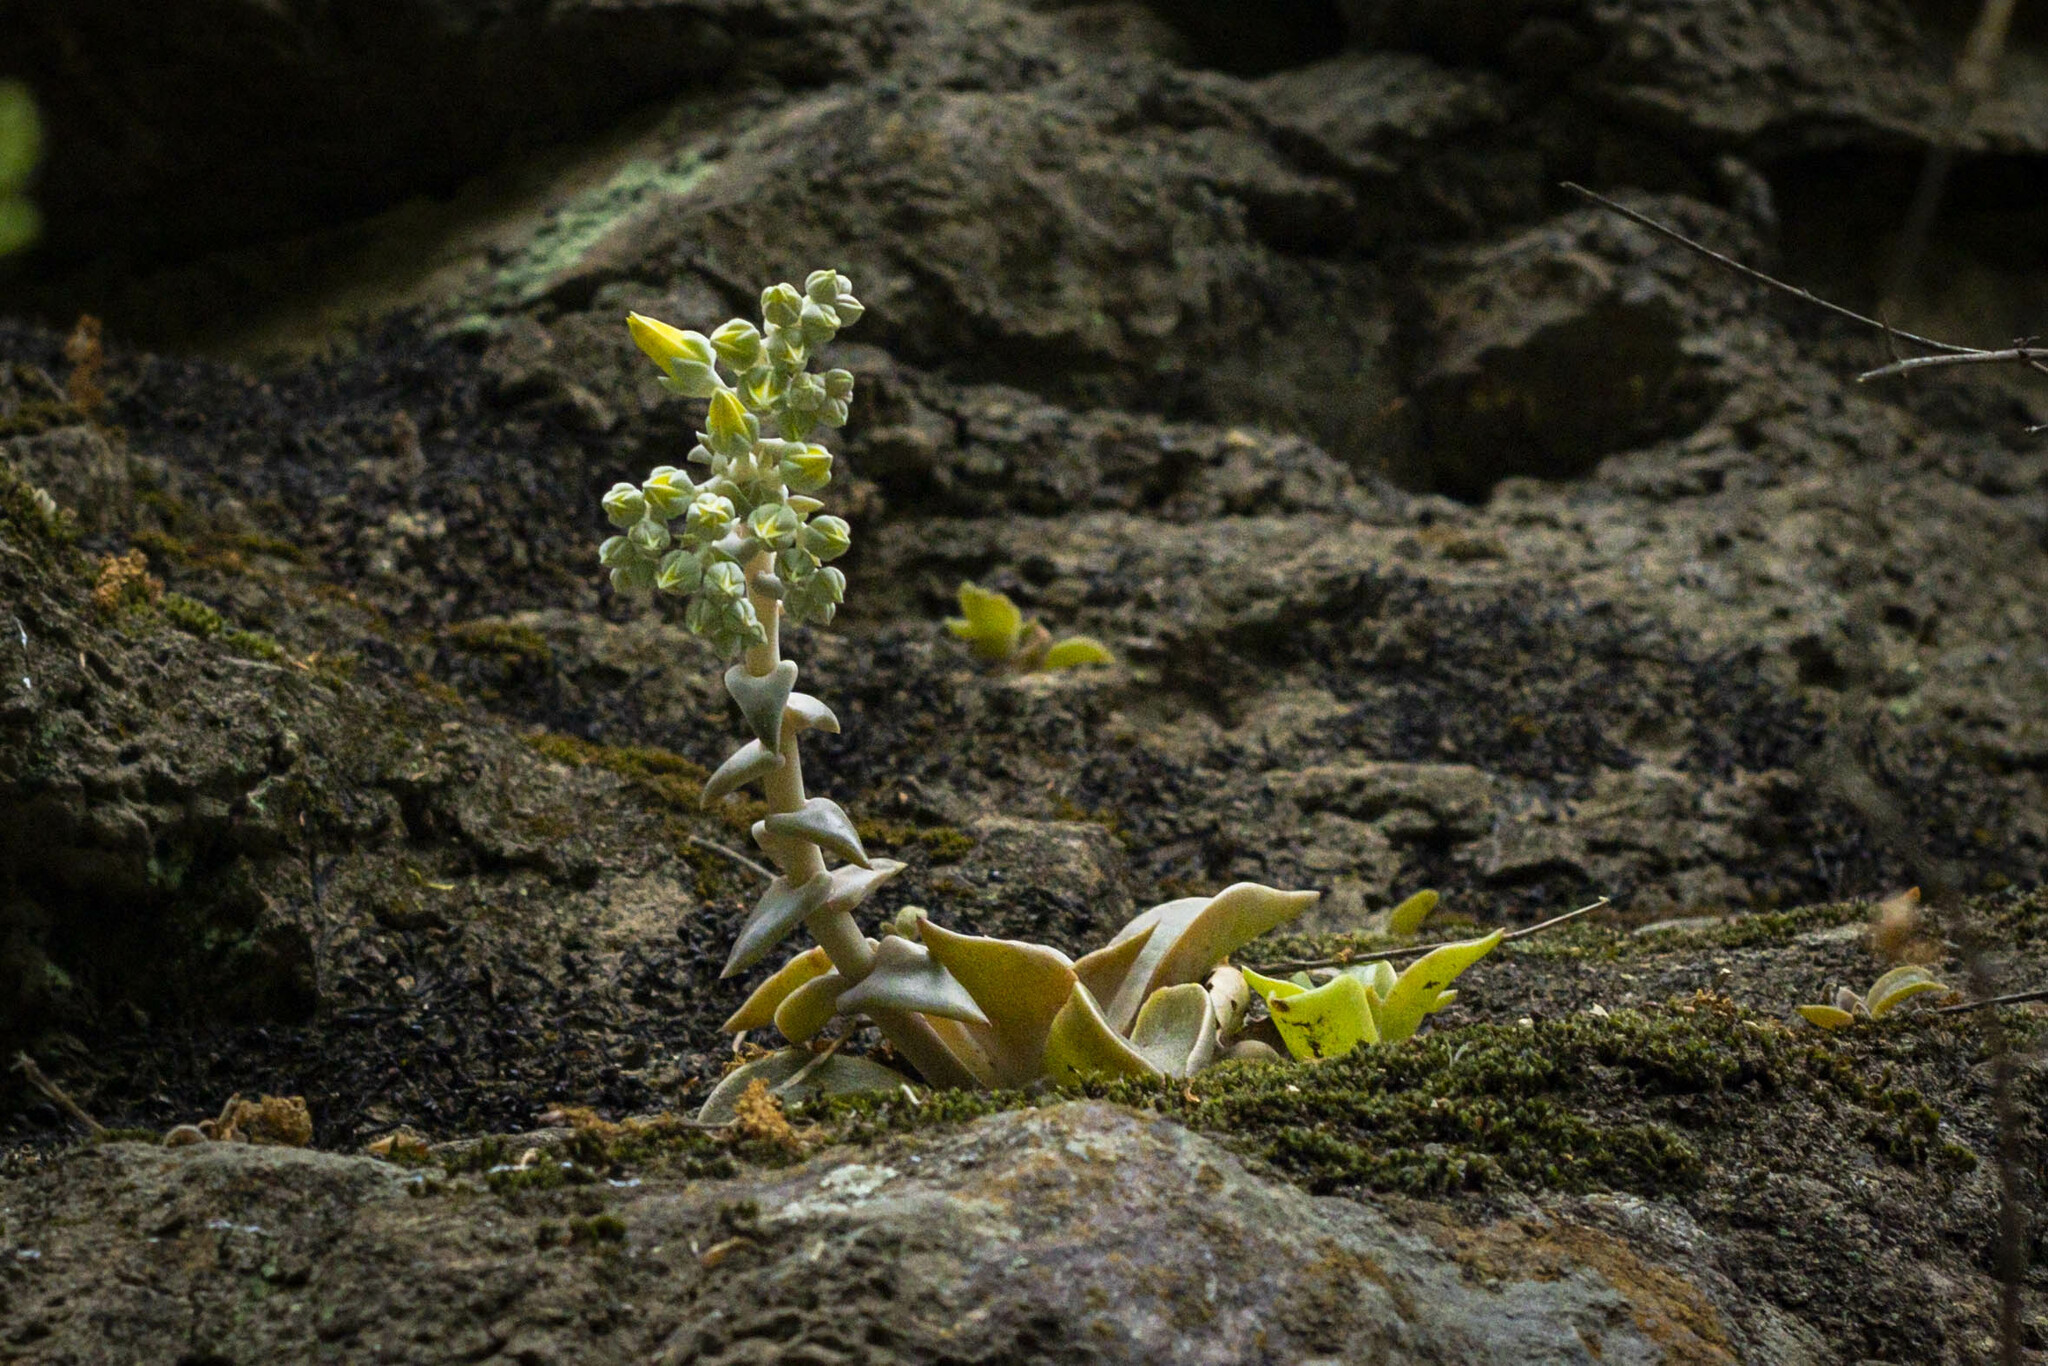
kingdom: Plantae
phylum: Tracheophyta
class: Magnoliopsida
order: Saxifragales
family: Crassulaceae
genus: Dudleya
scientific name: Dudleya cymosa
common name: Canyon dudleya
